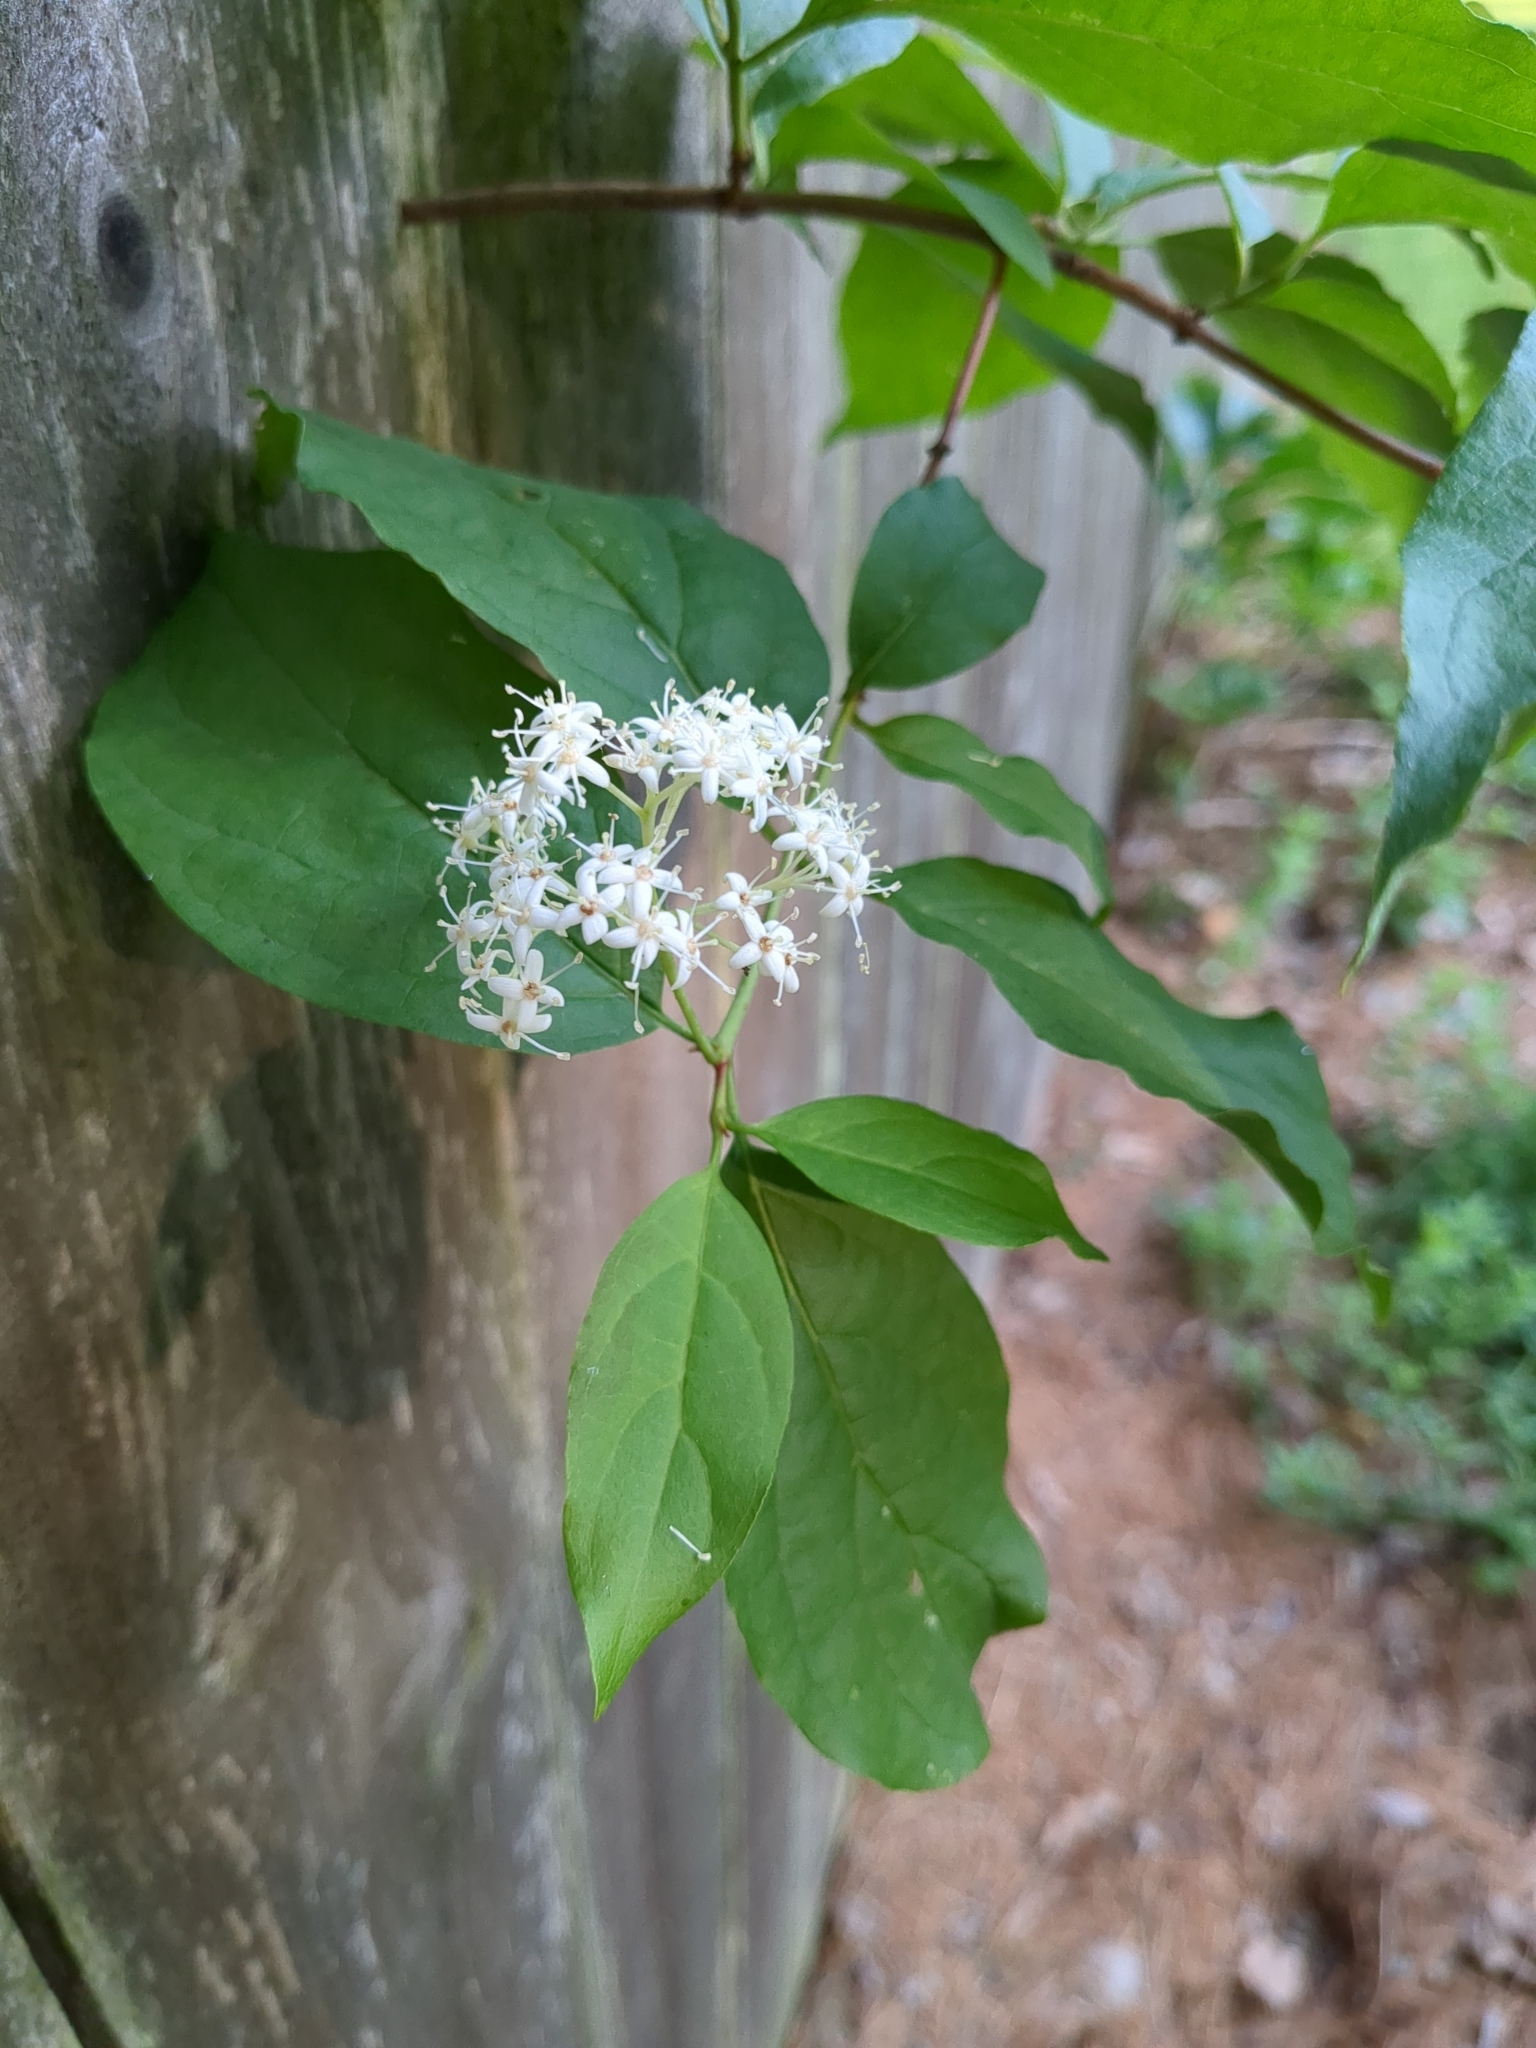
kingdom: Plantae
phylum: Tracheophyta
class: Magnoliopsida
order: Cornales
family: Cornaceae
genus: Cornus
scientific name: Cornus racemosa
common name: Panicled dogwood
